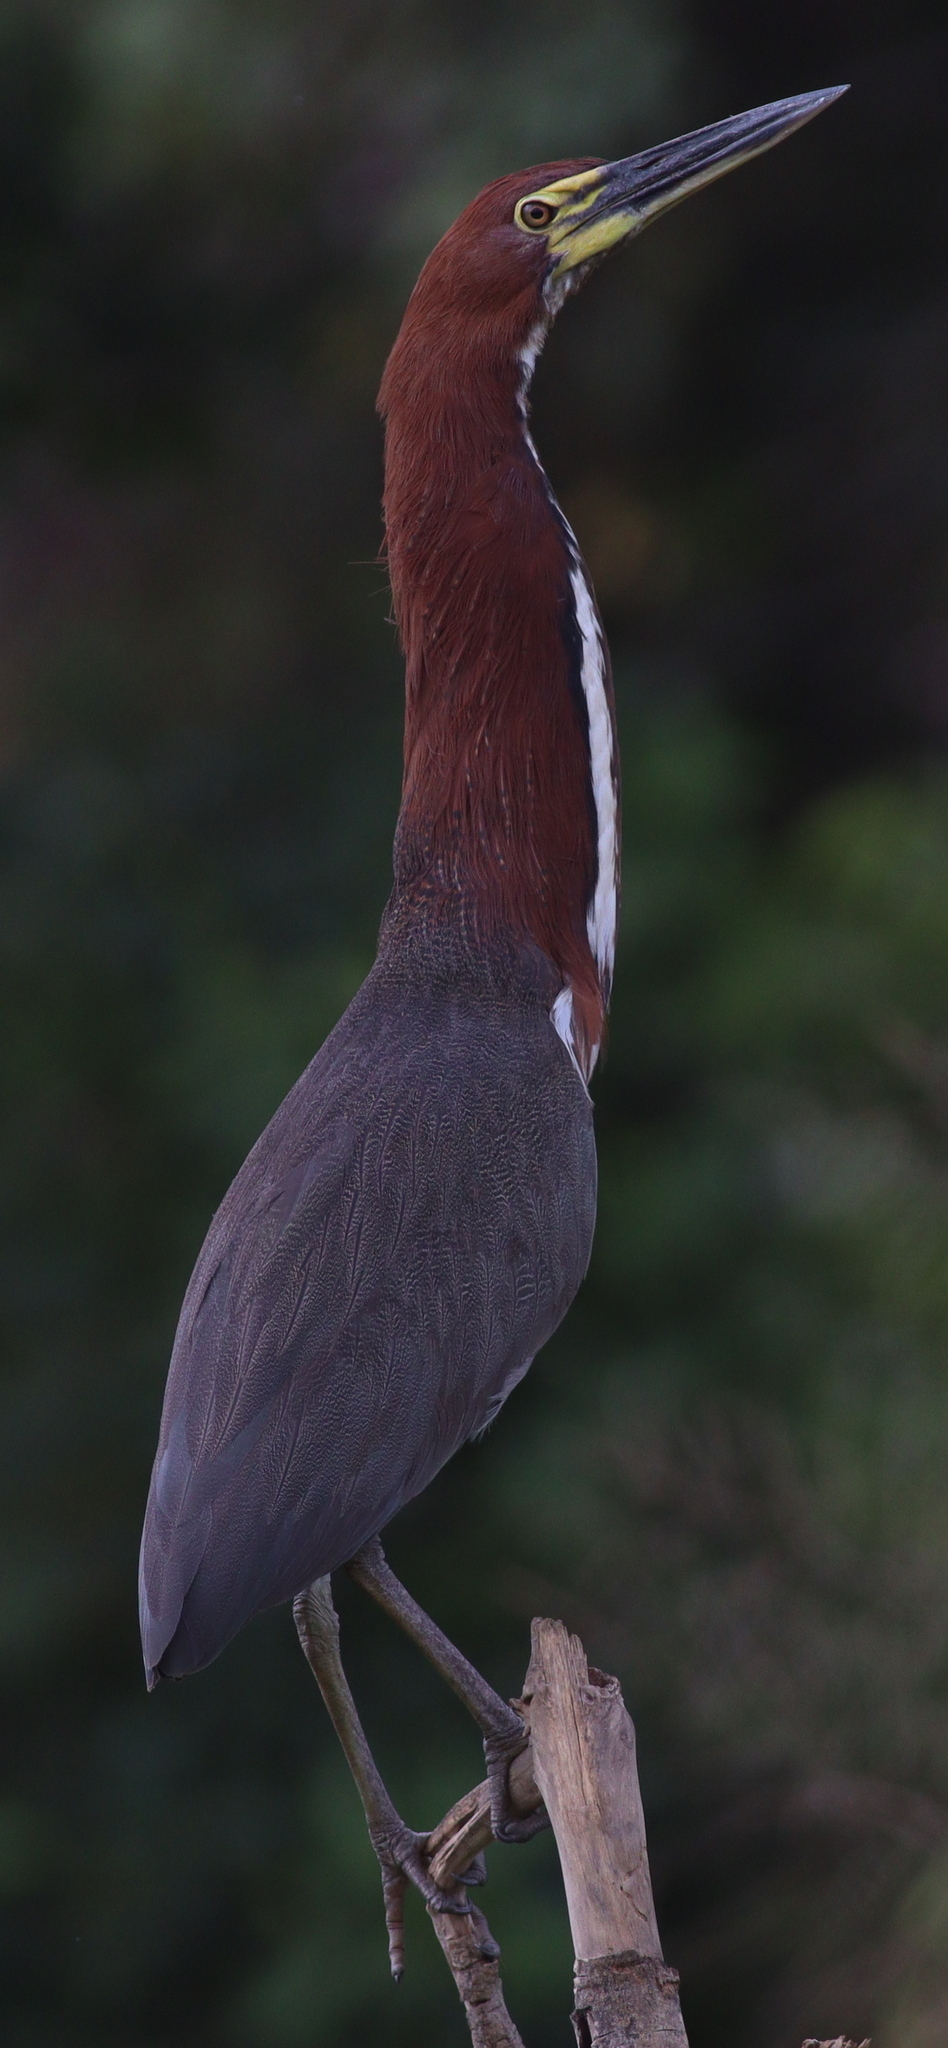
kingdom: Animalia
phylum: Chordata
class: Aves
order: Pelecaniformes
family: Ardeidae
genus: Tigrisoma
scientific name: Tigrisoma lineatum
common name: Rufescent tiger-heron
